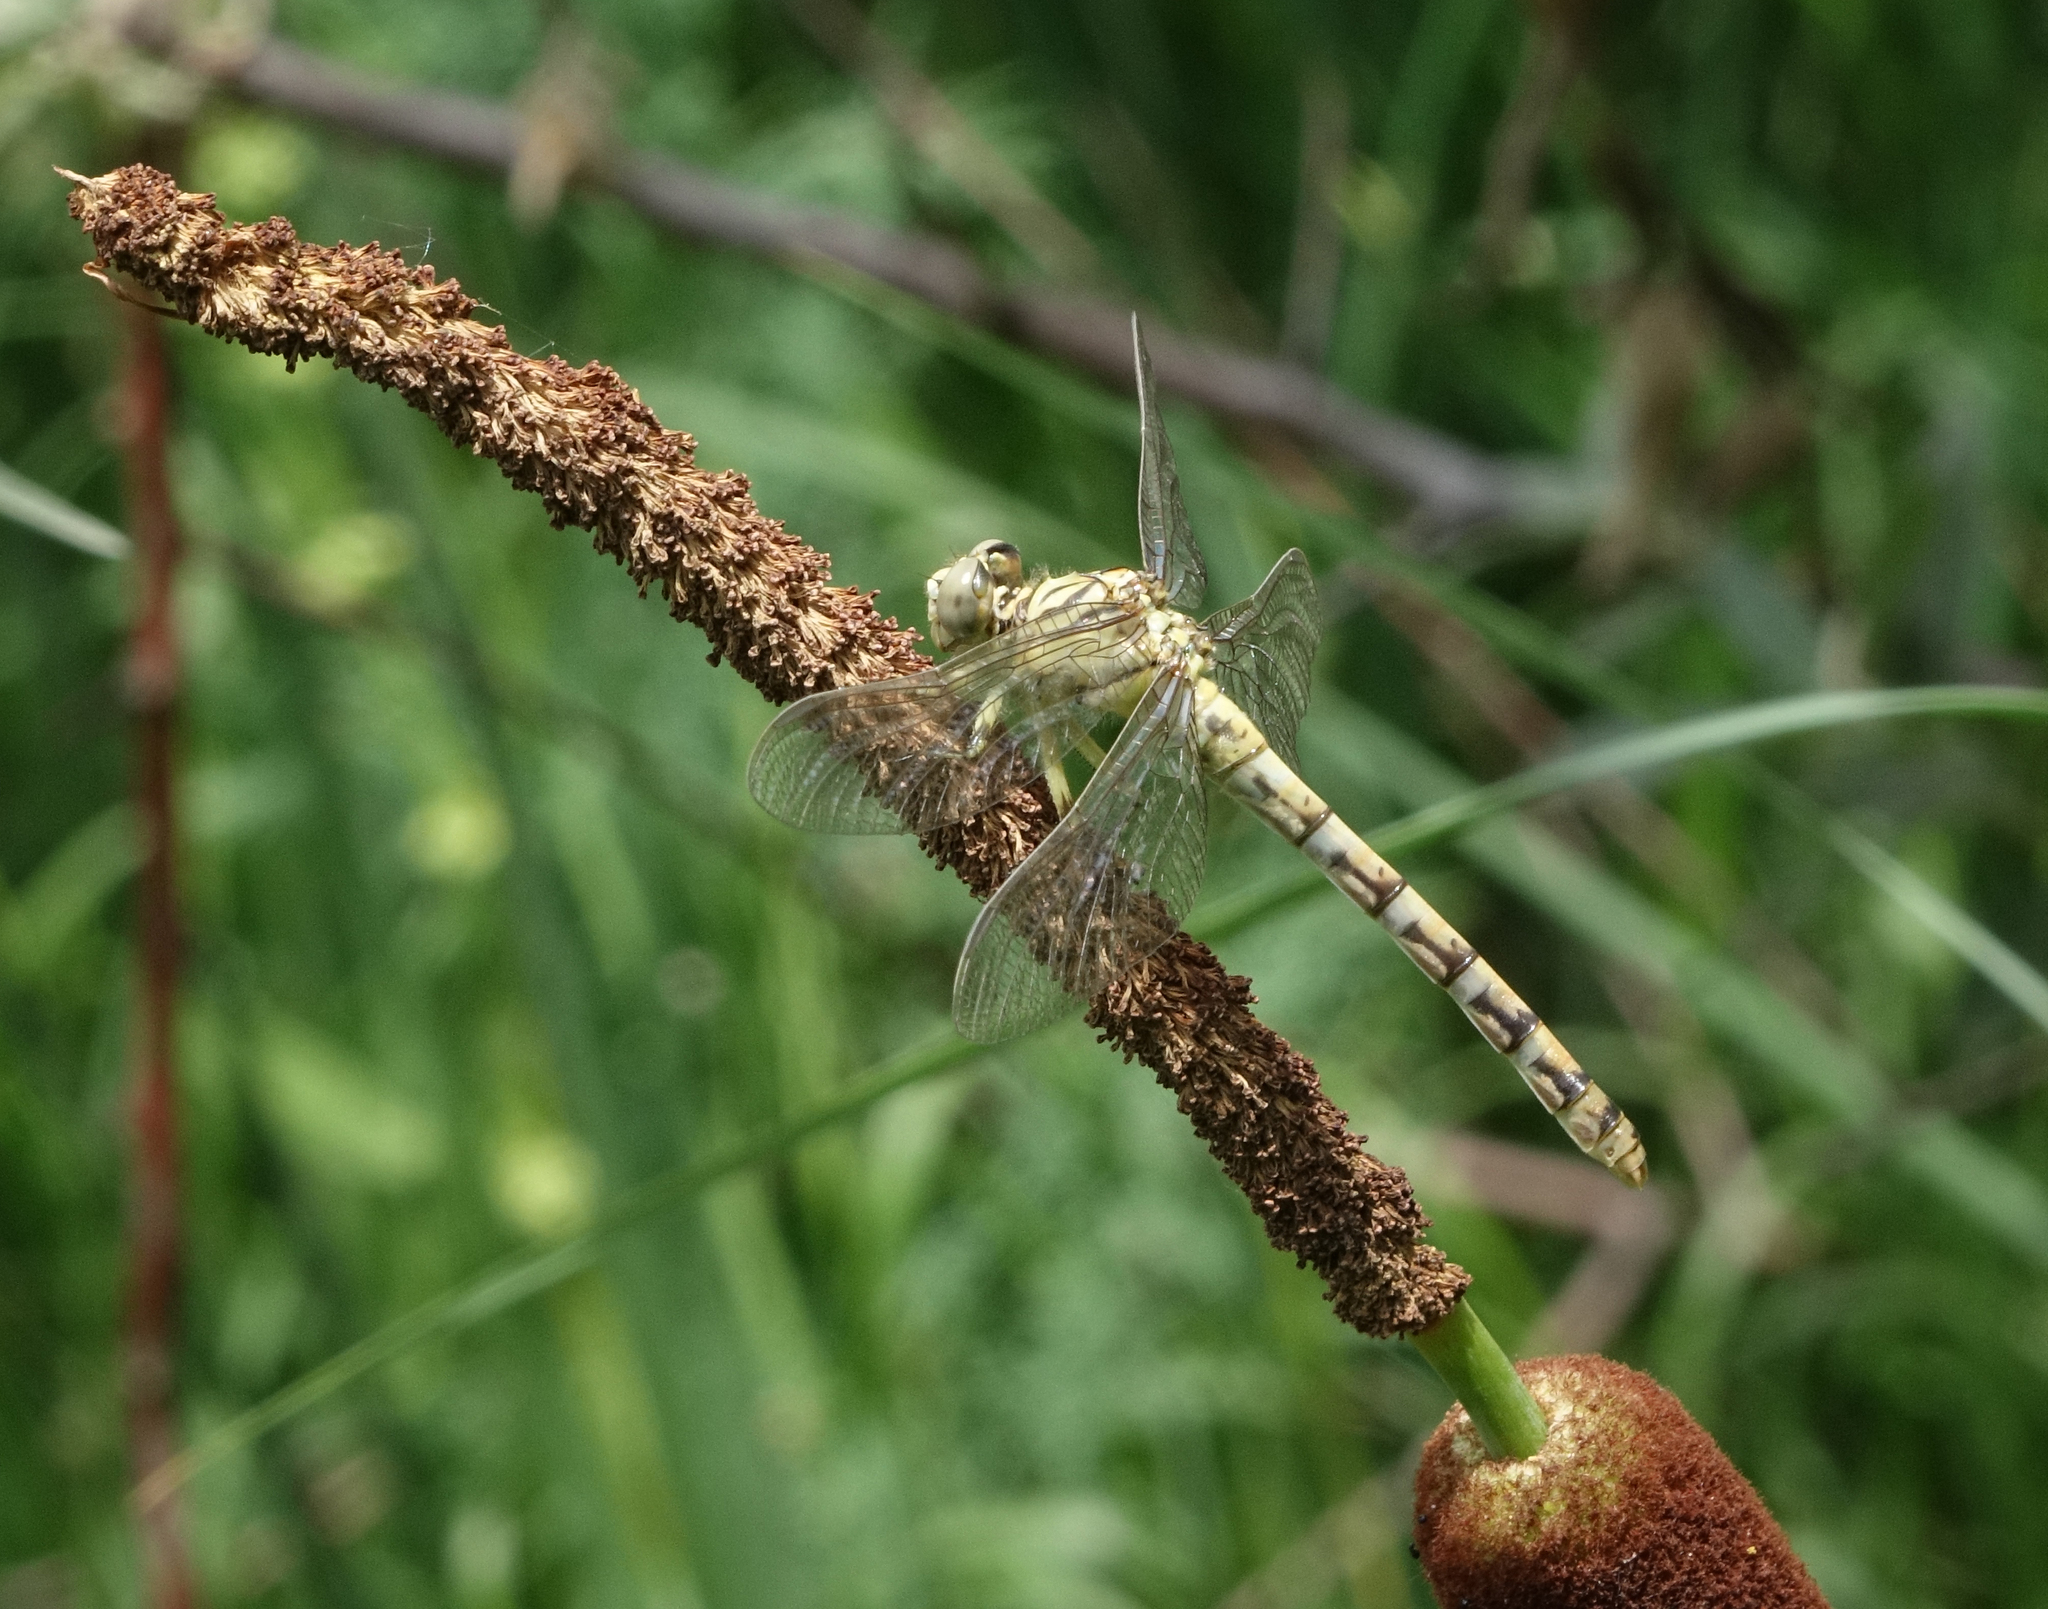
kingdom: Animalia
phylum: Arthropoda
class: Insecta
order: Odonata
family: Gomphidae
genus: Onychogomphus
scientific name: Onychogomphus forcipatus
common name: Small pincertail
